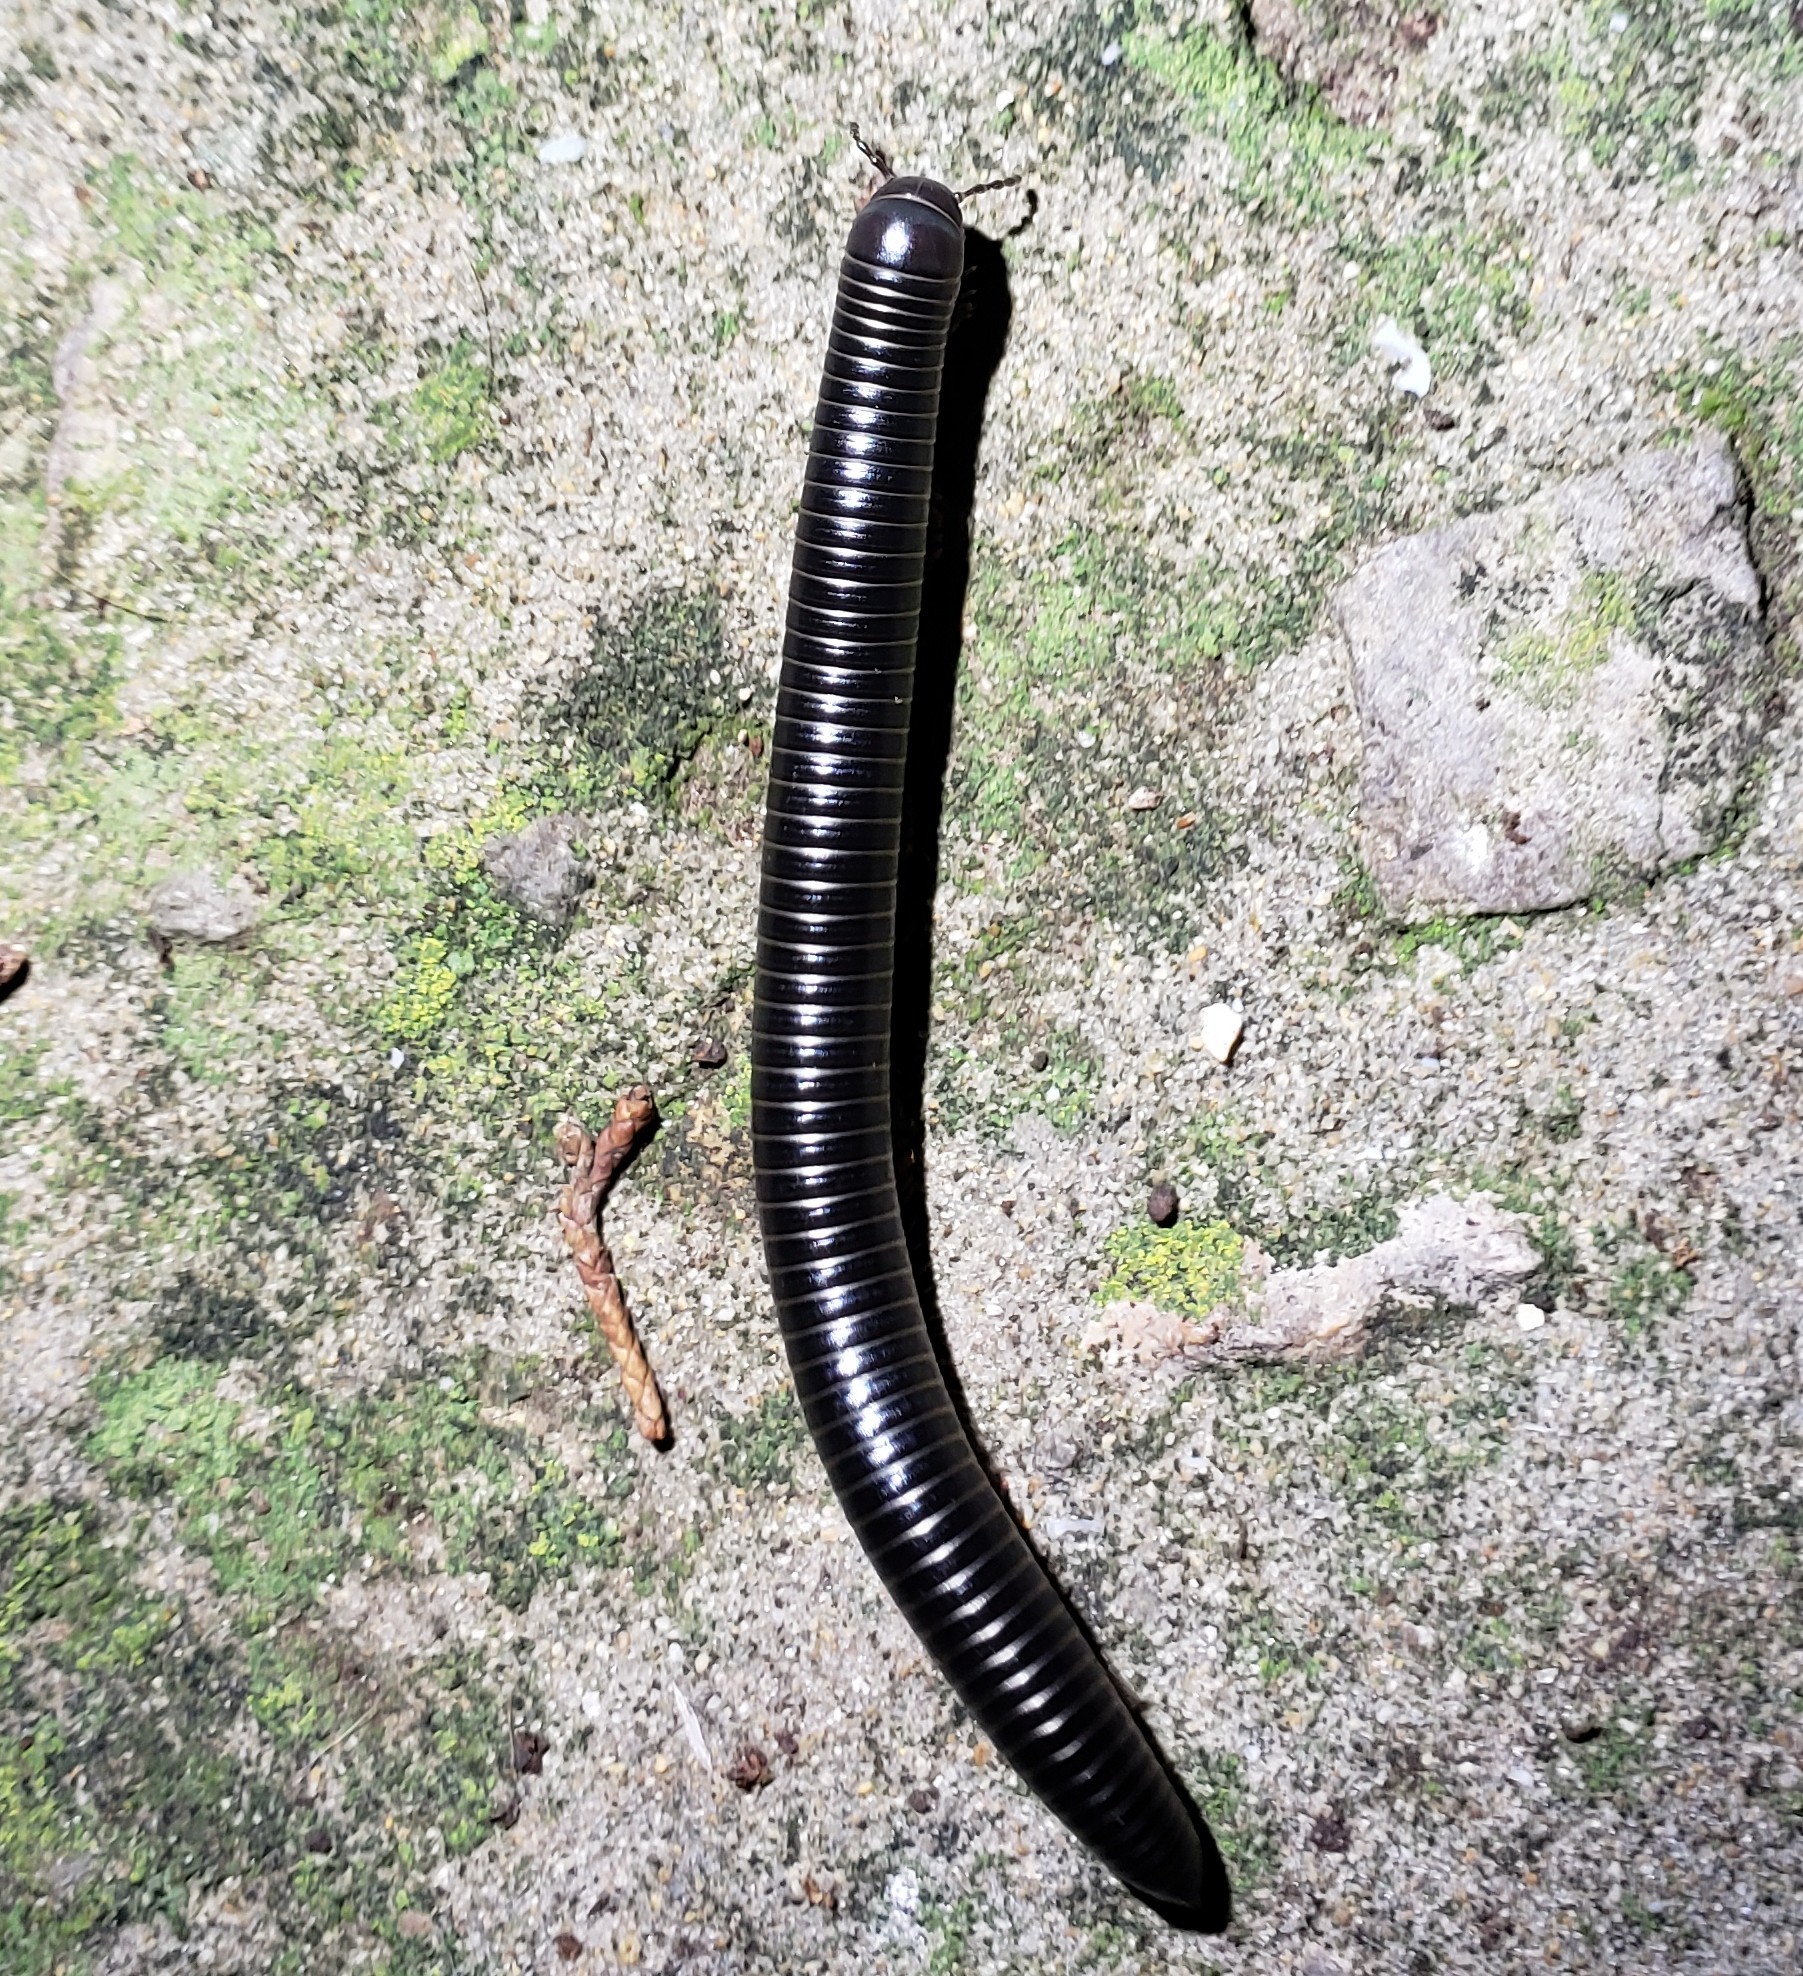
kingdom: Animalia
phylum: Arthropoda
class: Diplopoda
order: Spirostreptida
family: Spirostreptidae
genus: Archispirostreptus
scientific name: Archispirostreptus syriacus
